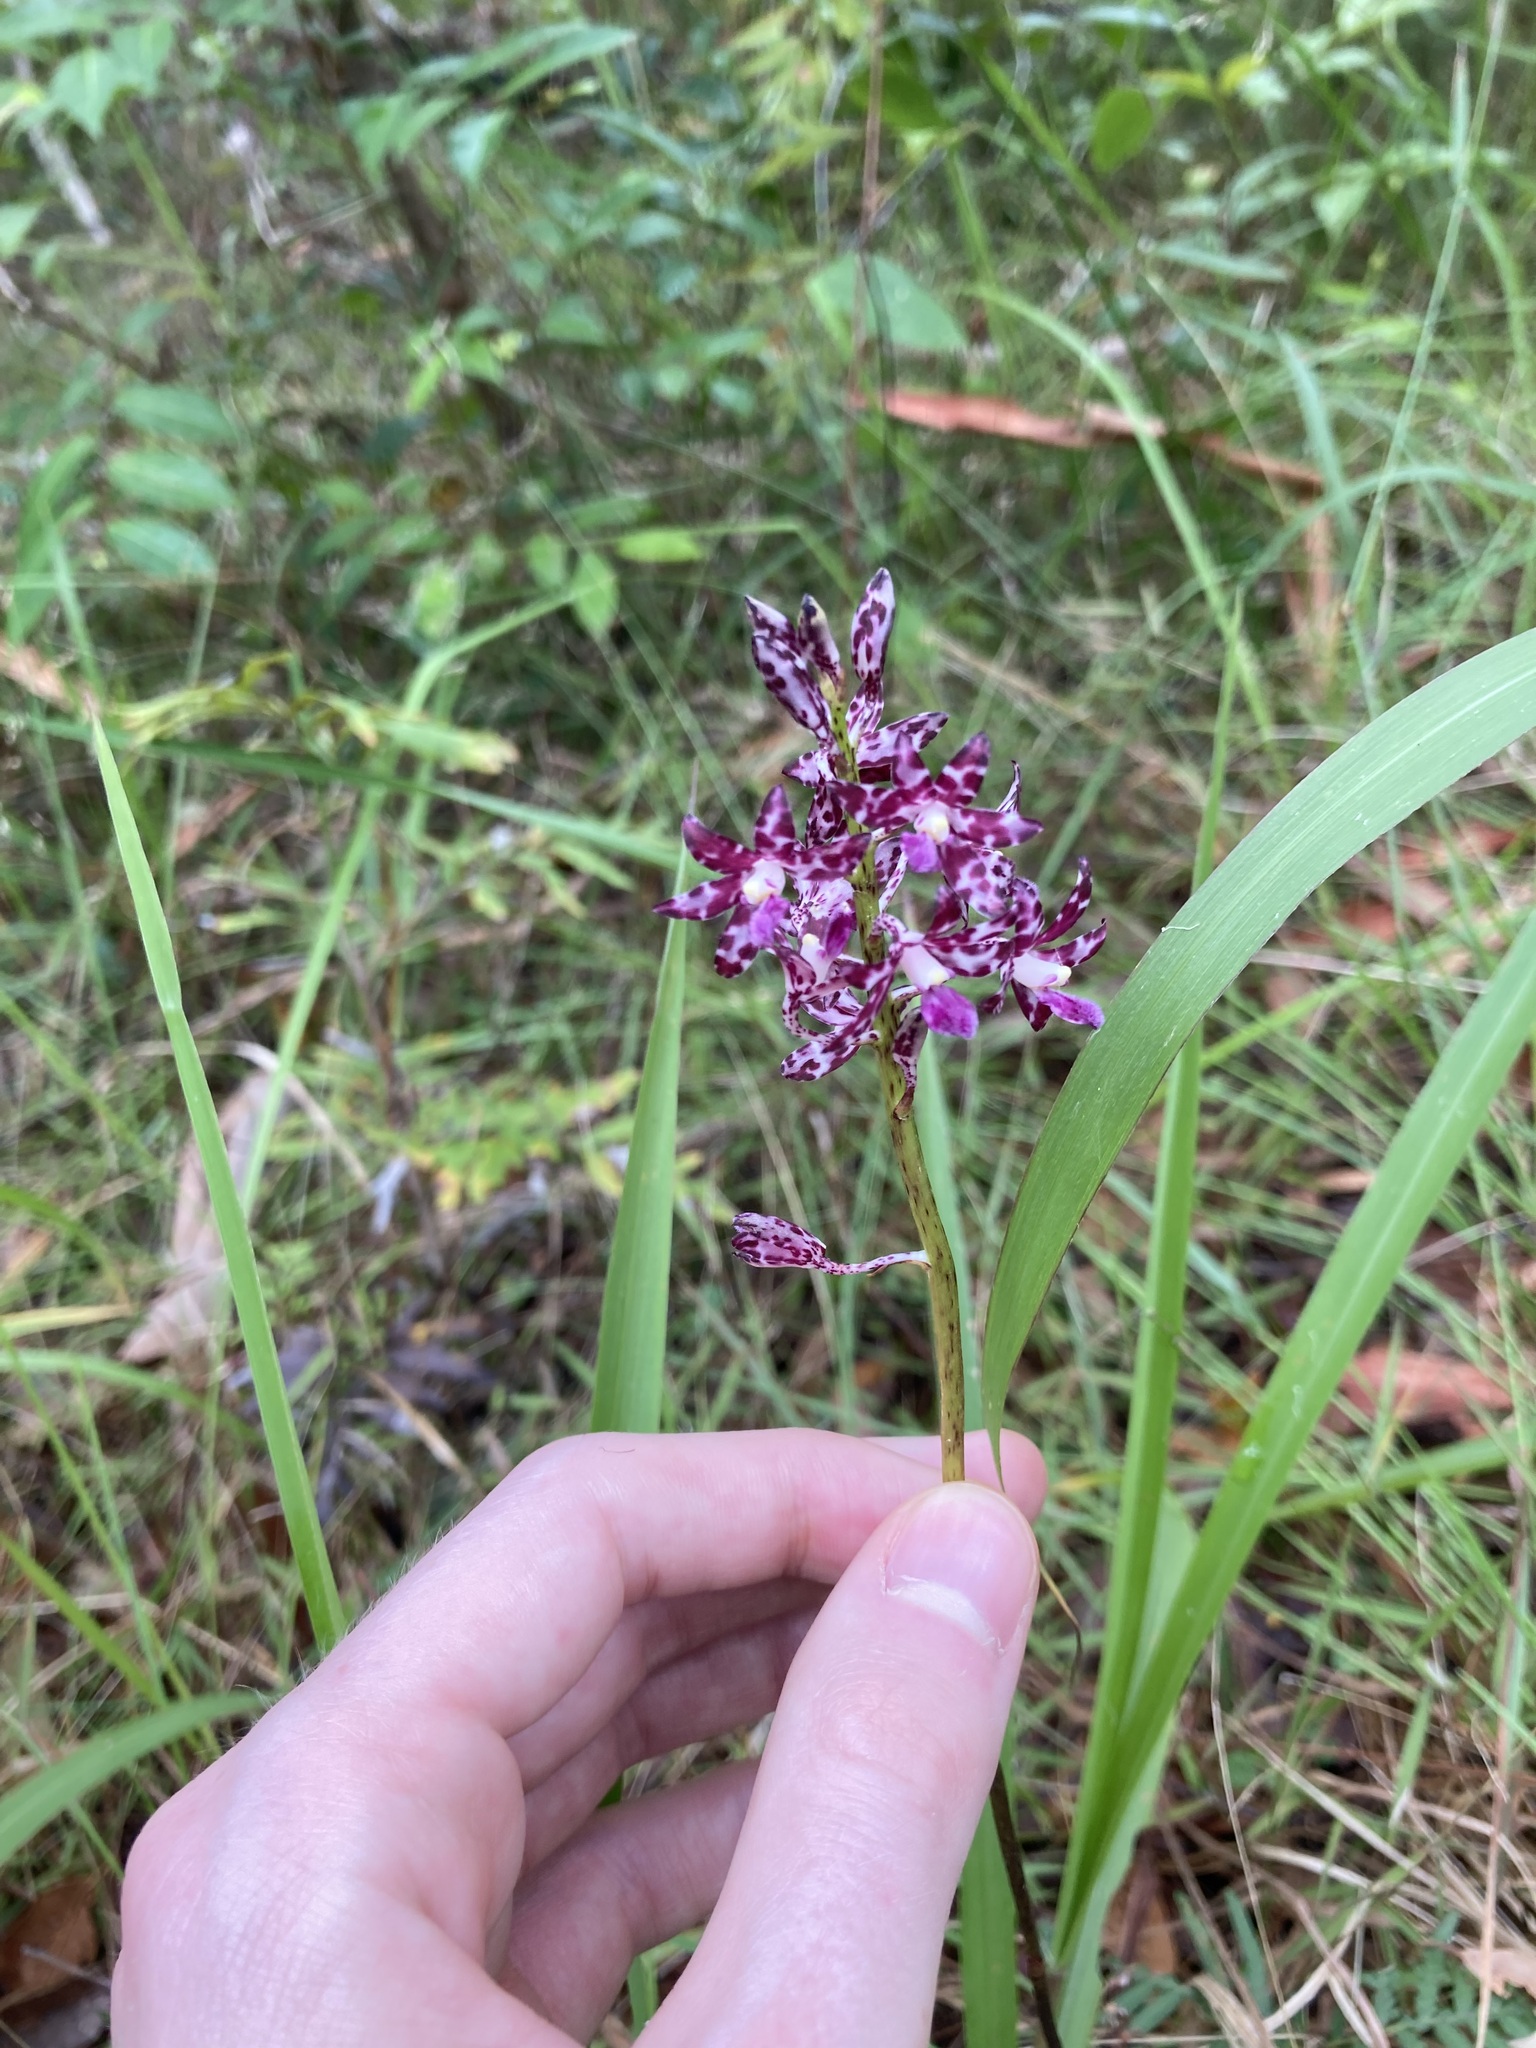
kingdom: Plantae
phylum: Tracheophyta
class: Liliopsida
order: Asparagales
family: Orchidaceae
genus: Dipodium
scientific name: Dipodium variegatum
